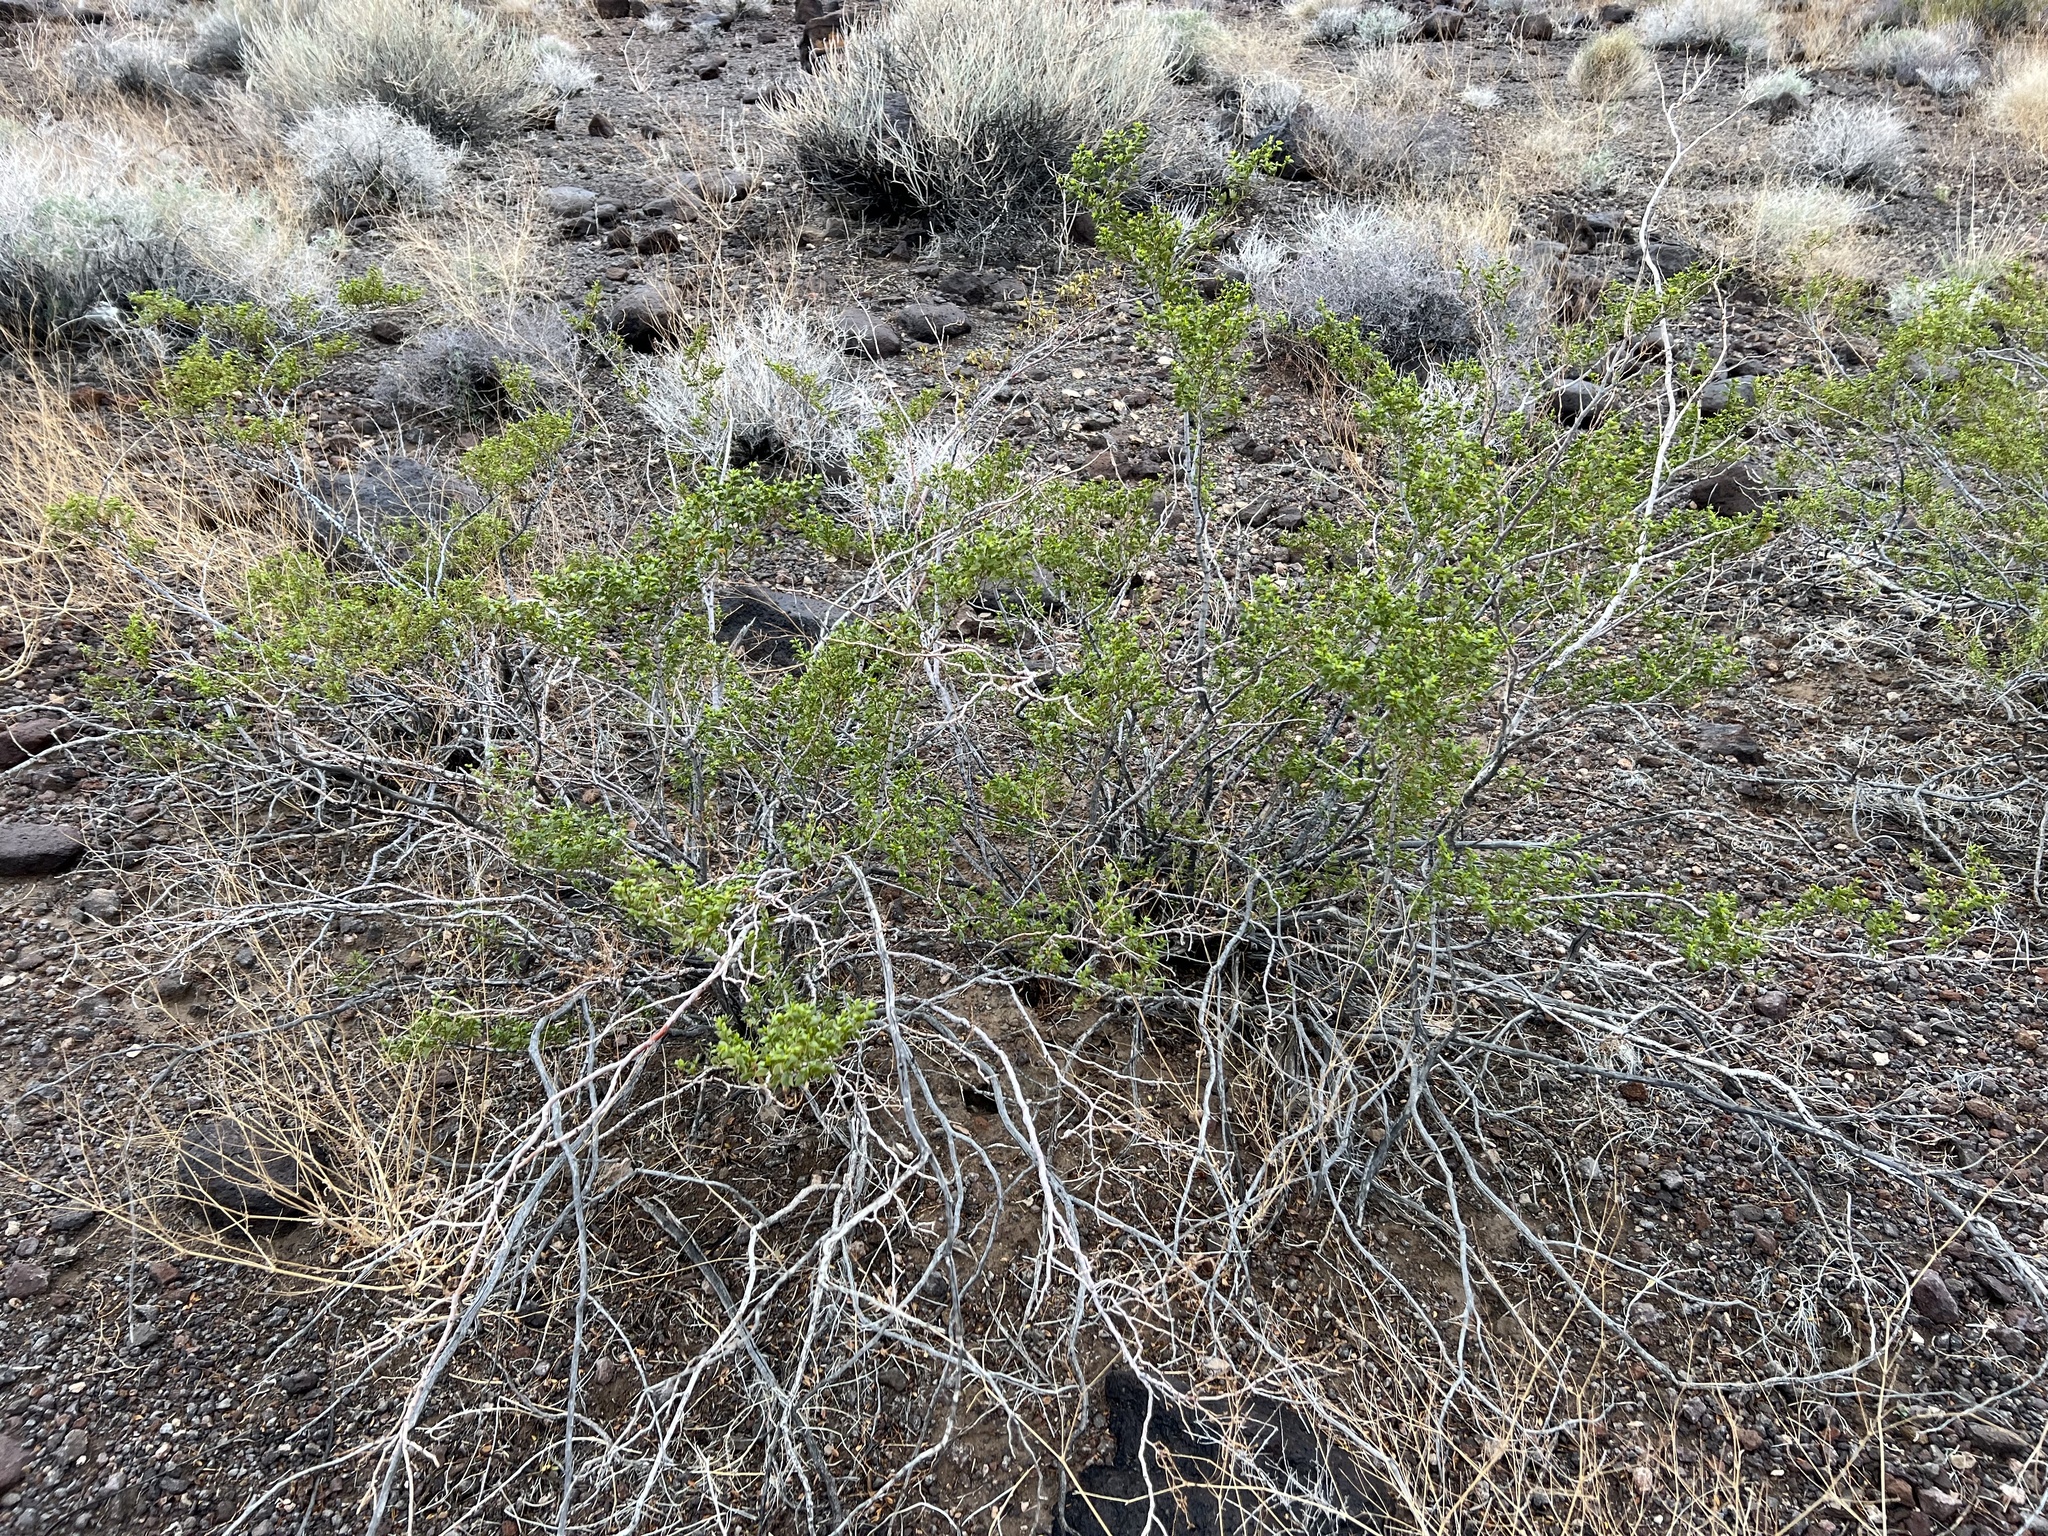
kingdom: Plantae
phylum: Tracheophyta
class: Magnoliopsida
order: Zygophyllales
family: Zygophyllaceae
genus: Larrea
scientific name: Larrea tridentata
